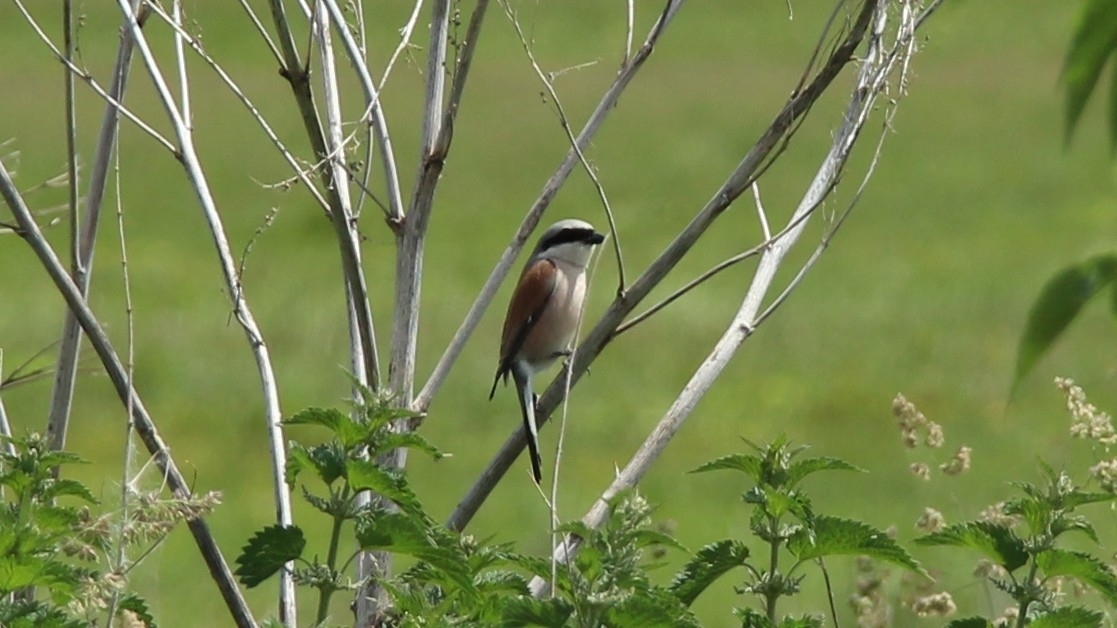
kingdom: Animalia
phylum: Chordata
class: Aves
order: Passeriformes
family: Laniidae
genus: Lanius
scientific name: Lanius collurio
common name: Red-backed shrike
